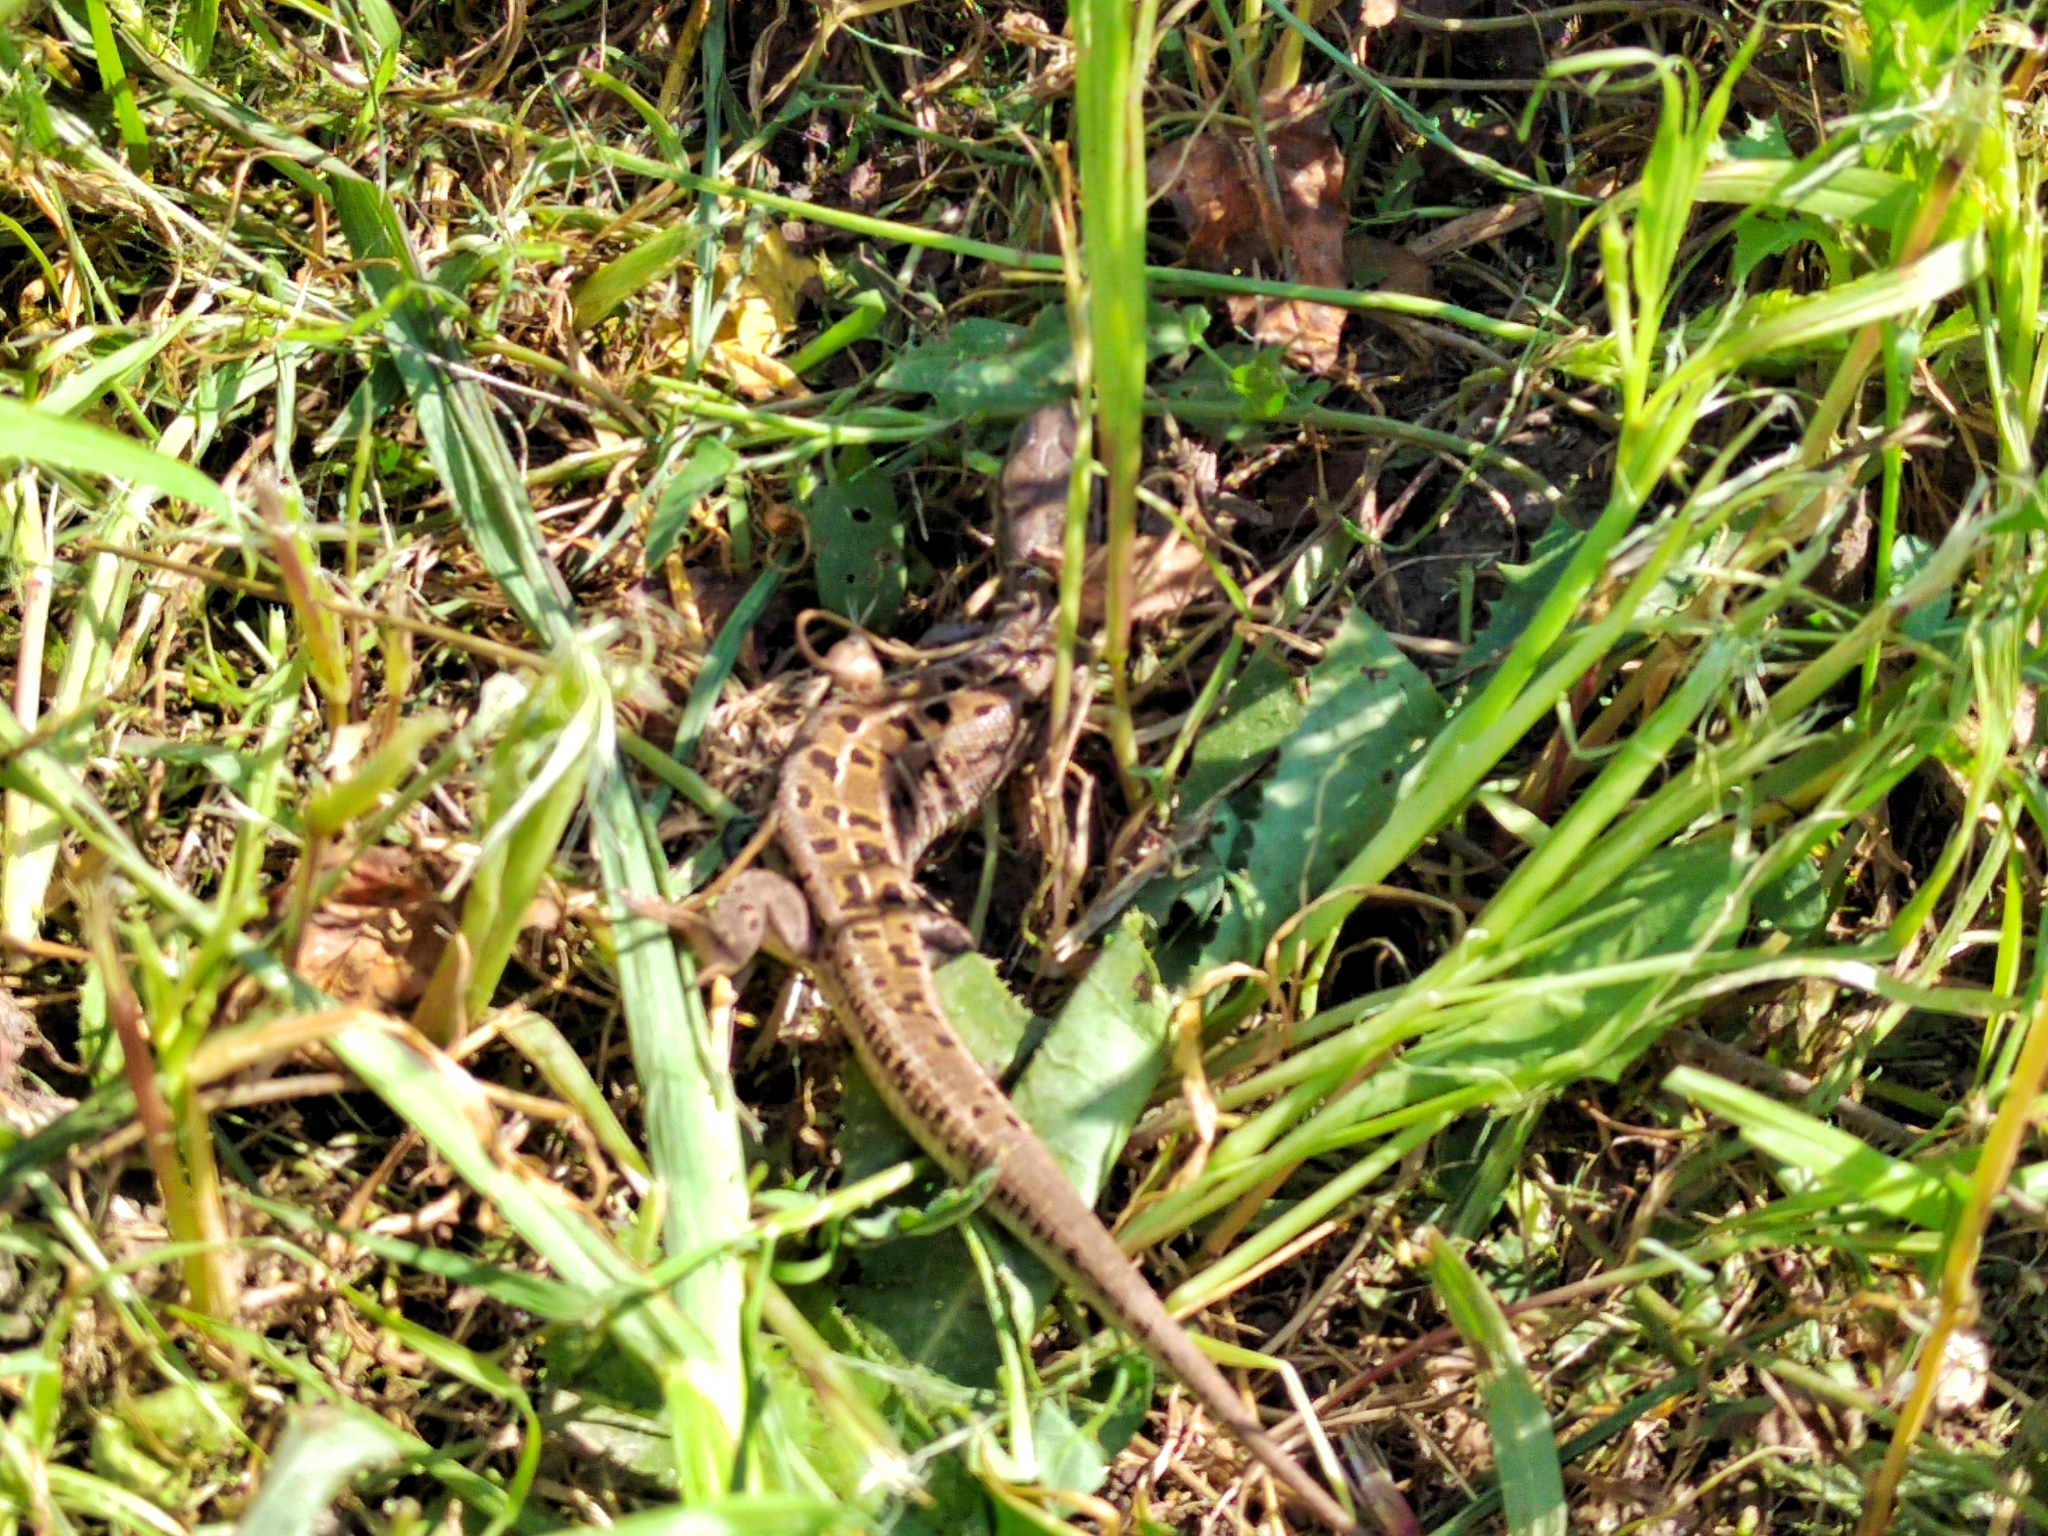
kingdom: Animalia
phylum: Chordata
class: Squamata
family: Lacertidae
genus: Lacerta
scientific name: Lacerta agilis
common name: Sand lizard
